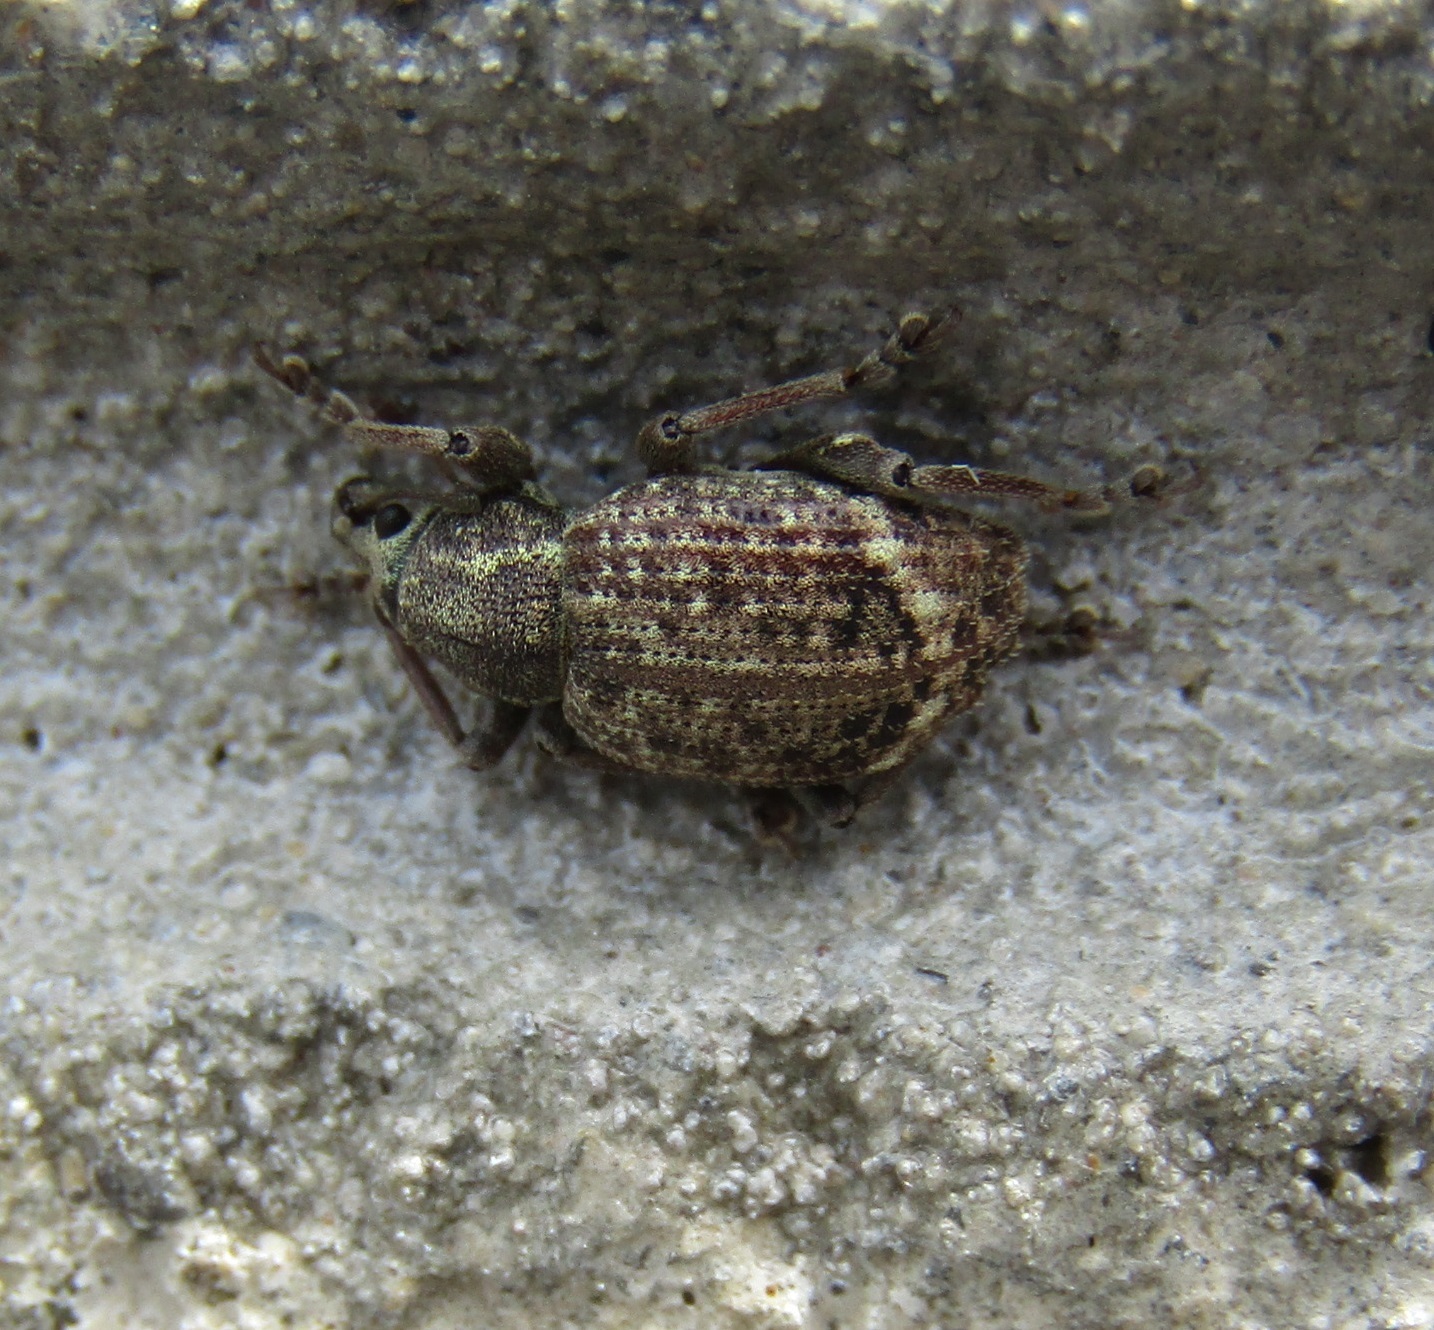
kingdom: Animalia
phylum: Arthropoda
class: Insecta
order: Coleoptera
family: Curculionidae
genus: Phlyctinus
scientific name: Phlyctinus callosus
